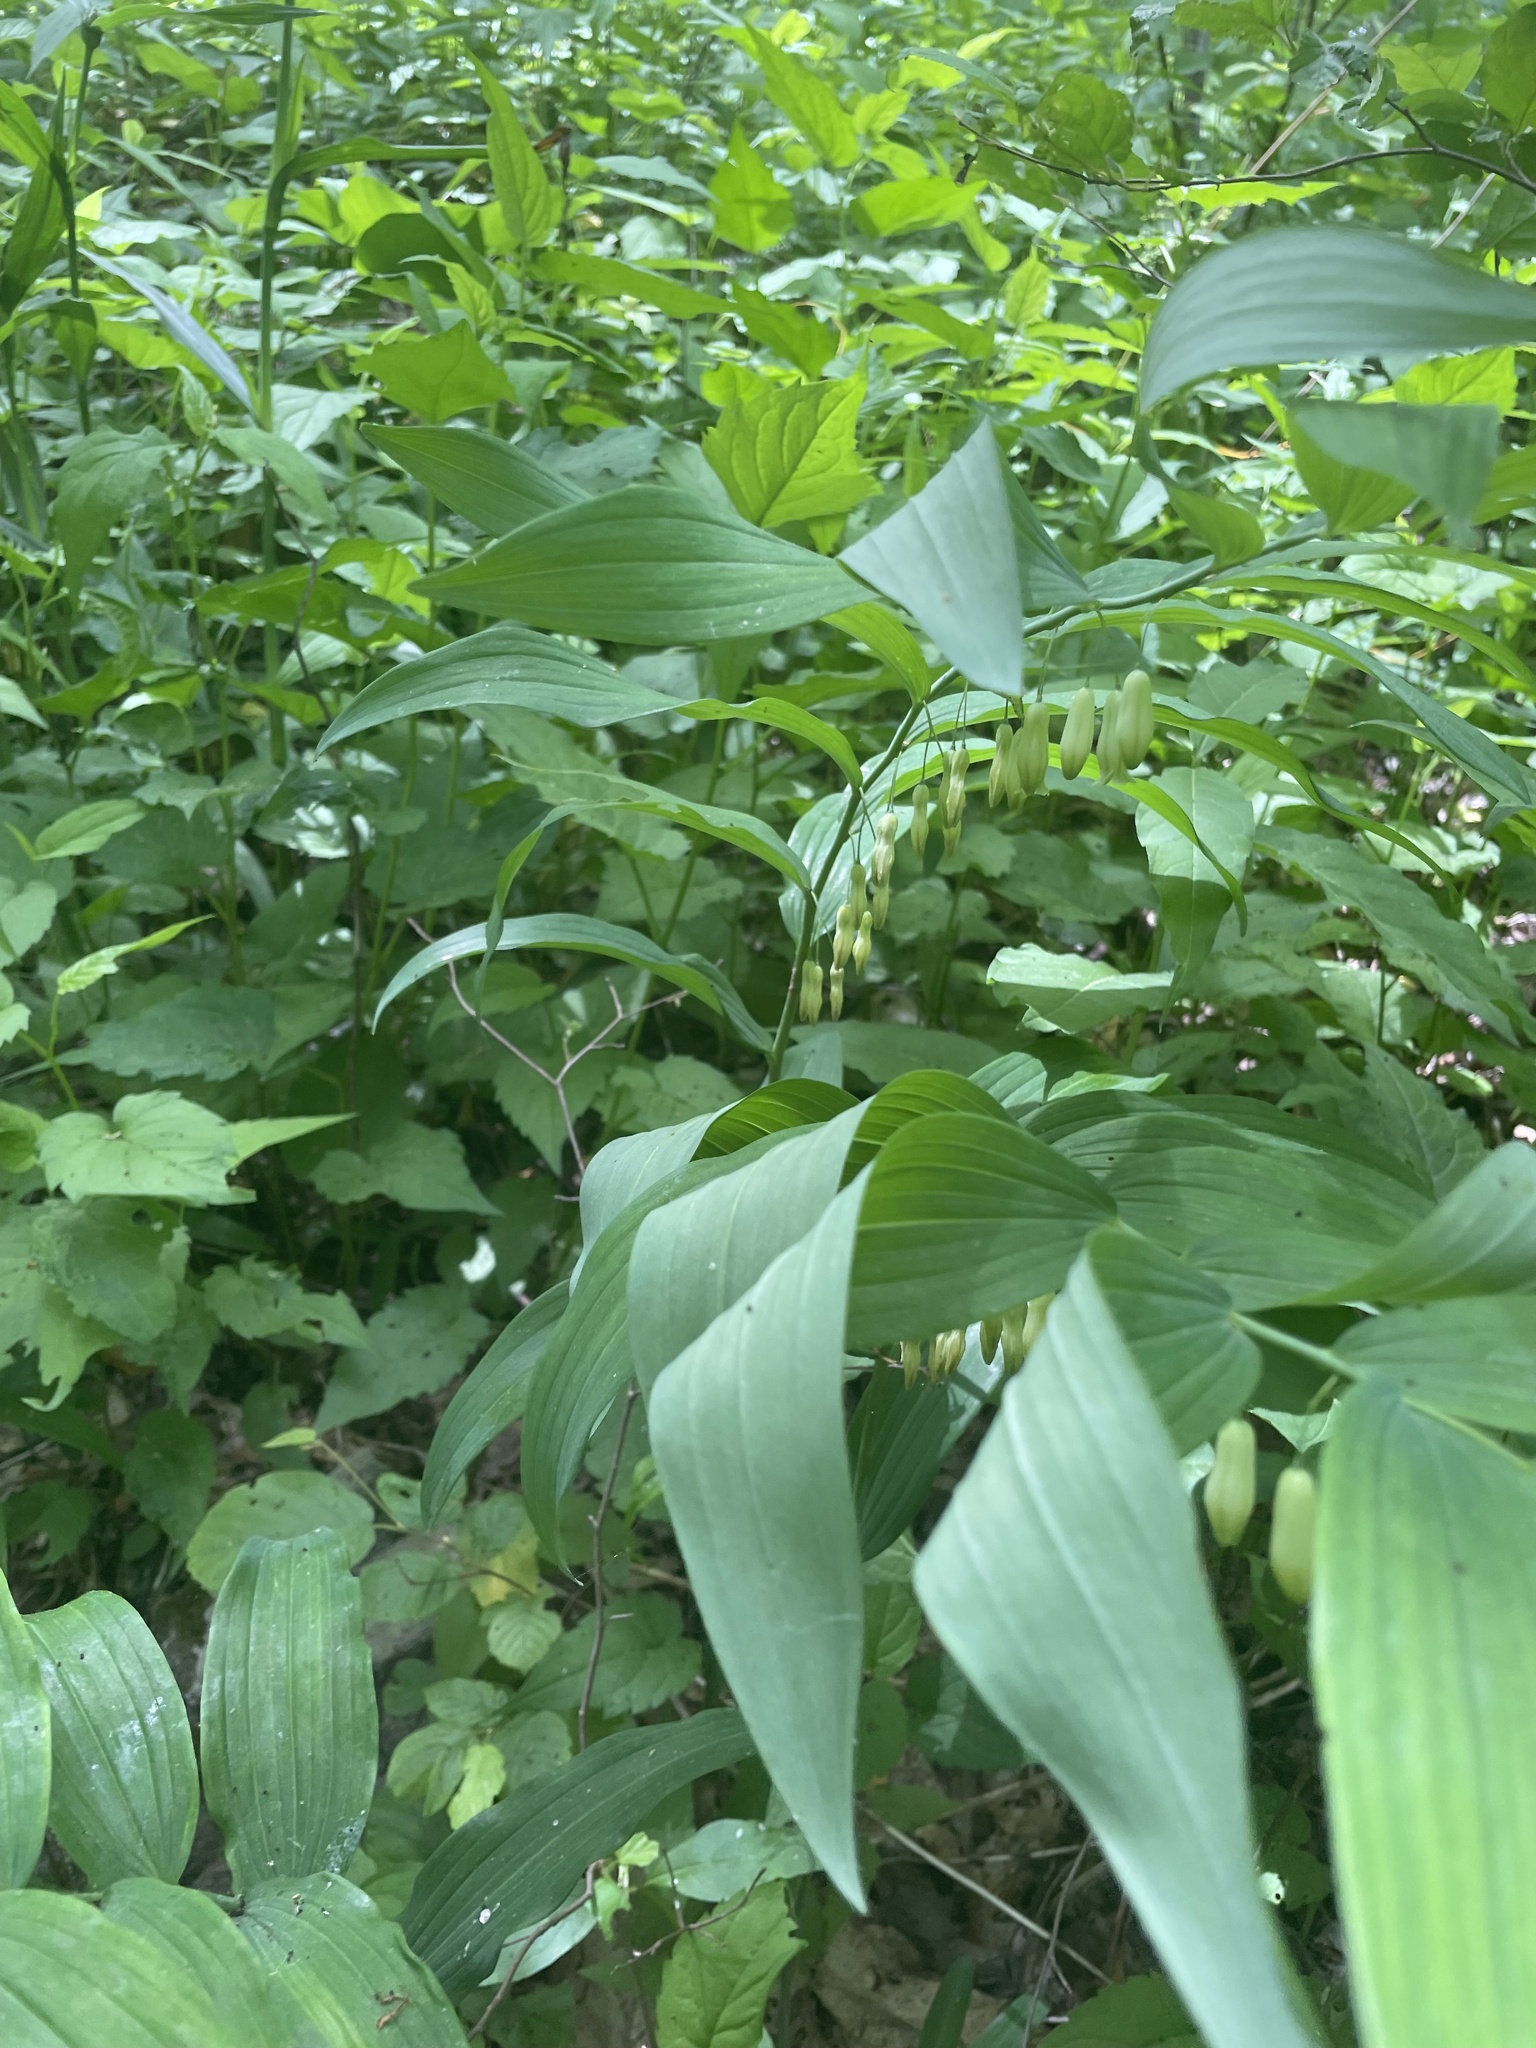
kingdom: Plantae
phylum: Tracheophyta
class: Liliopsida
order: Asparagales
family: Asparagaceae
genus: Polygonatum
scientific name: Polygonatum biflorum
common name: American solomon's-seal
